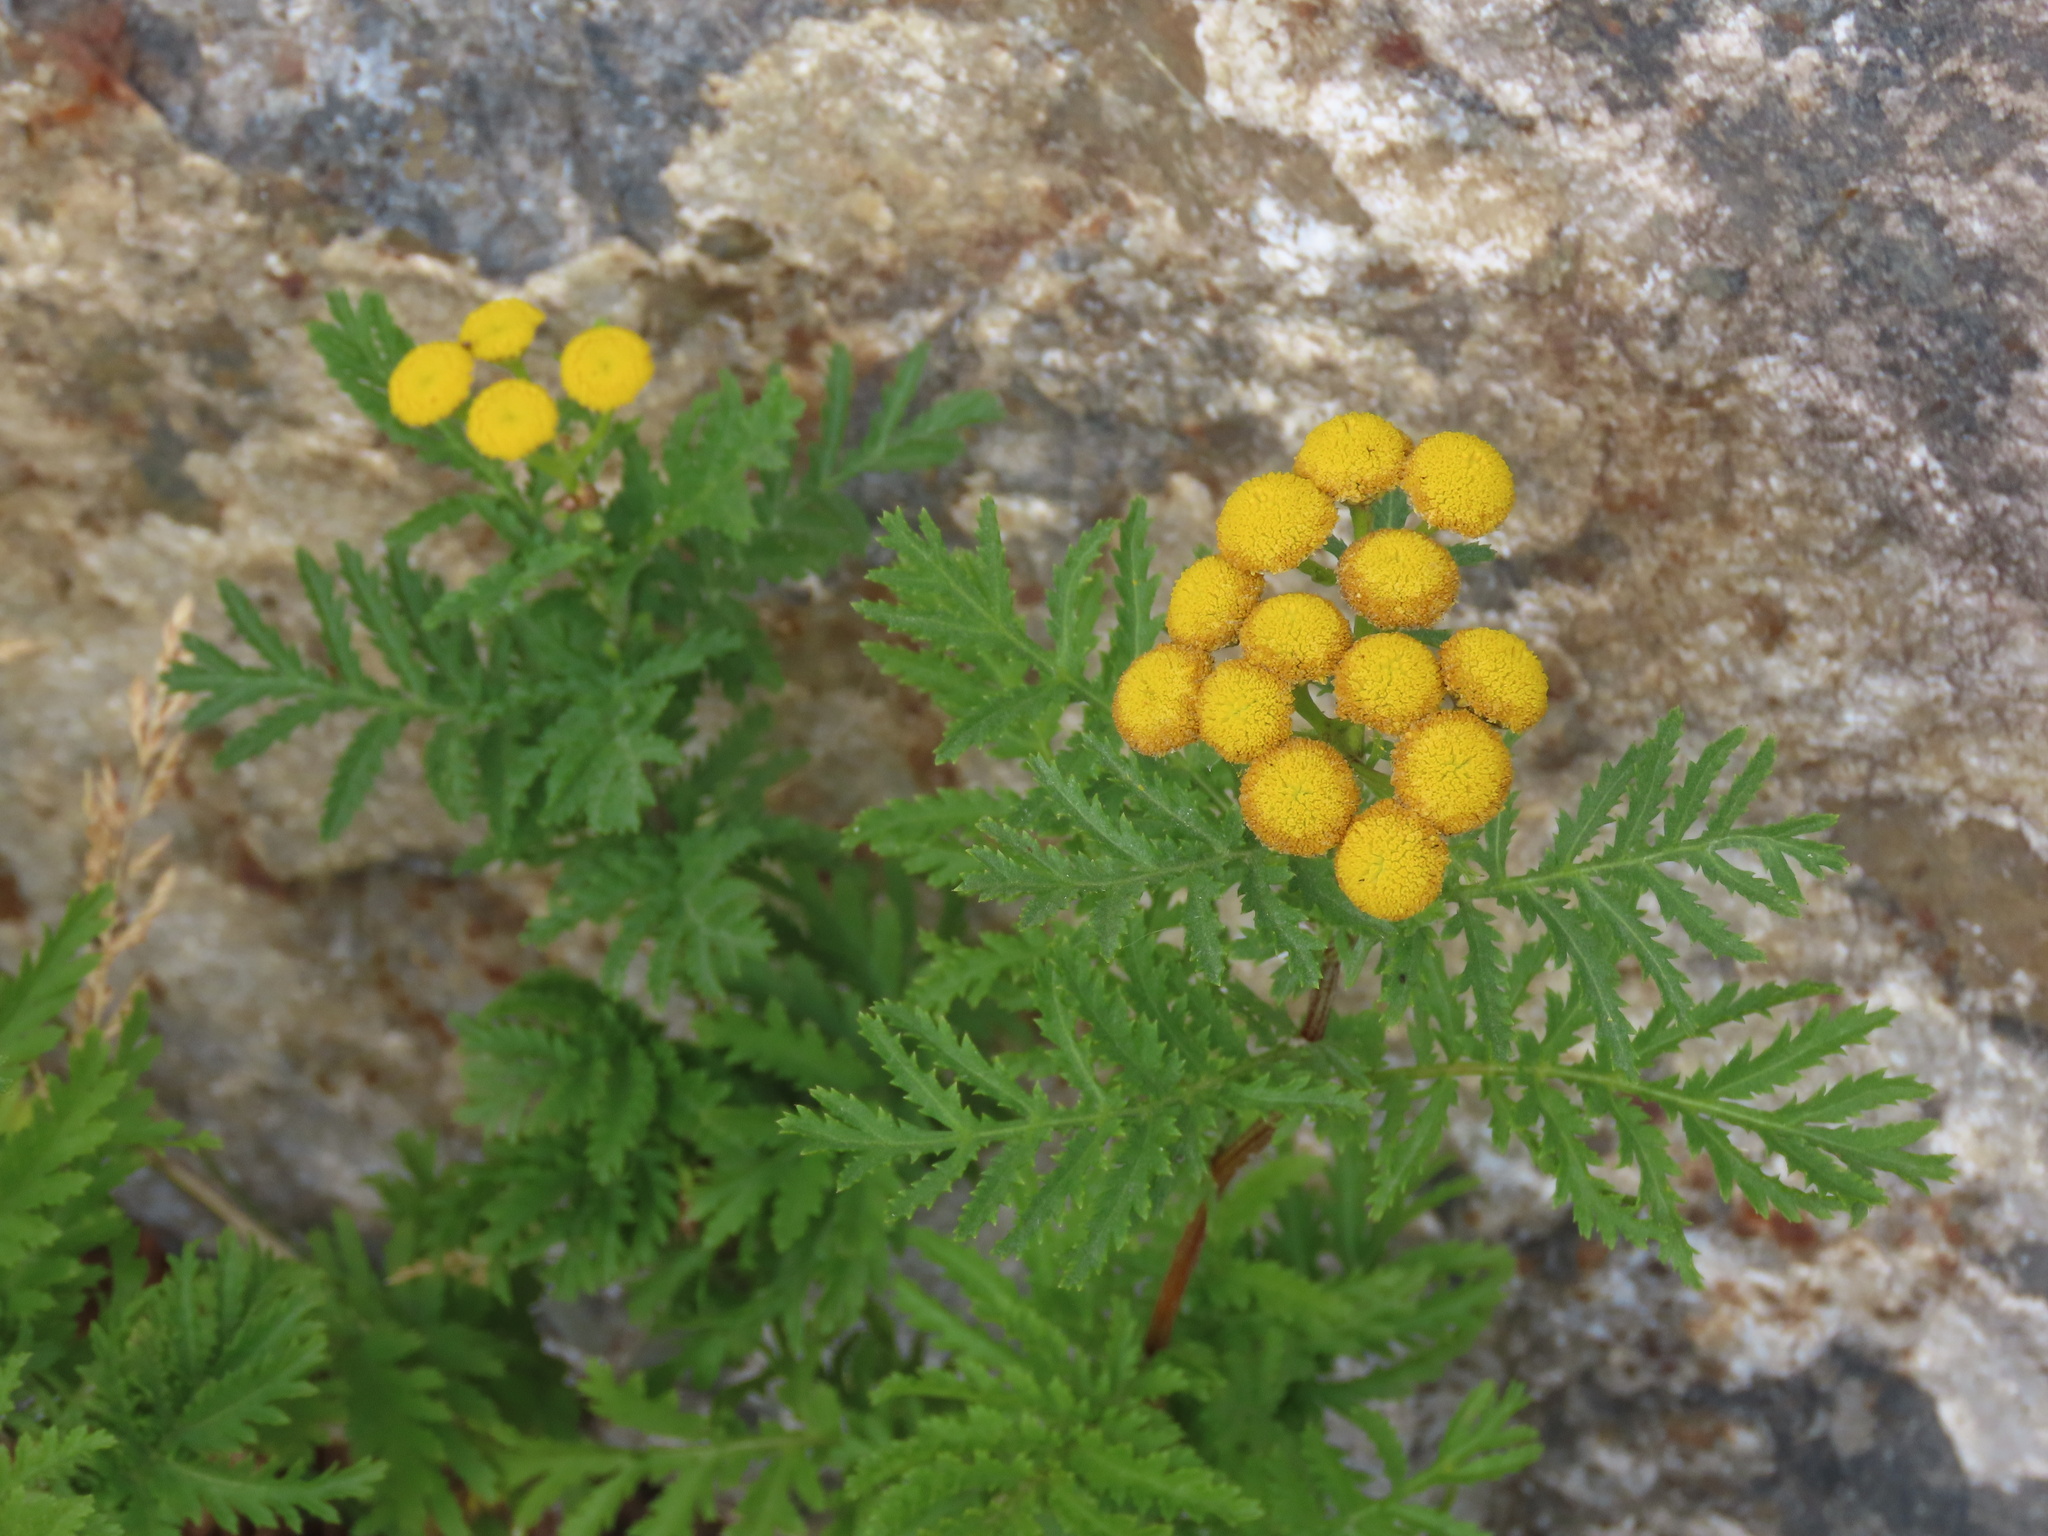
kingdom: Plantae
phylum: Tracheophyta
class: Magnoliopsida
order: Asterales
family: Asteraceae
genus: Tanacetum
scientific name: Tanacetum vulgare
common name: Common tansy
